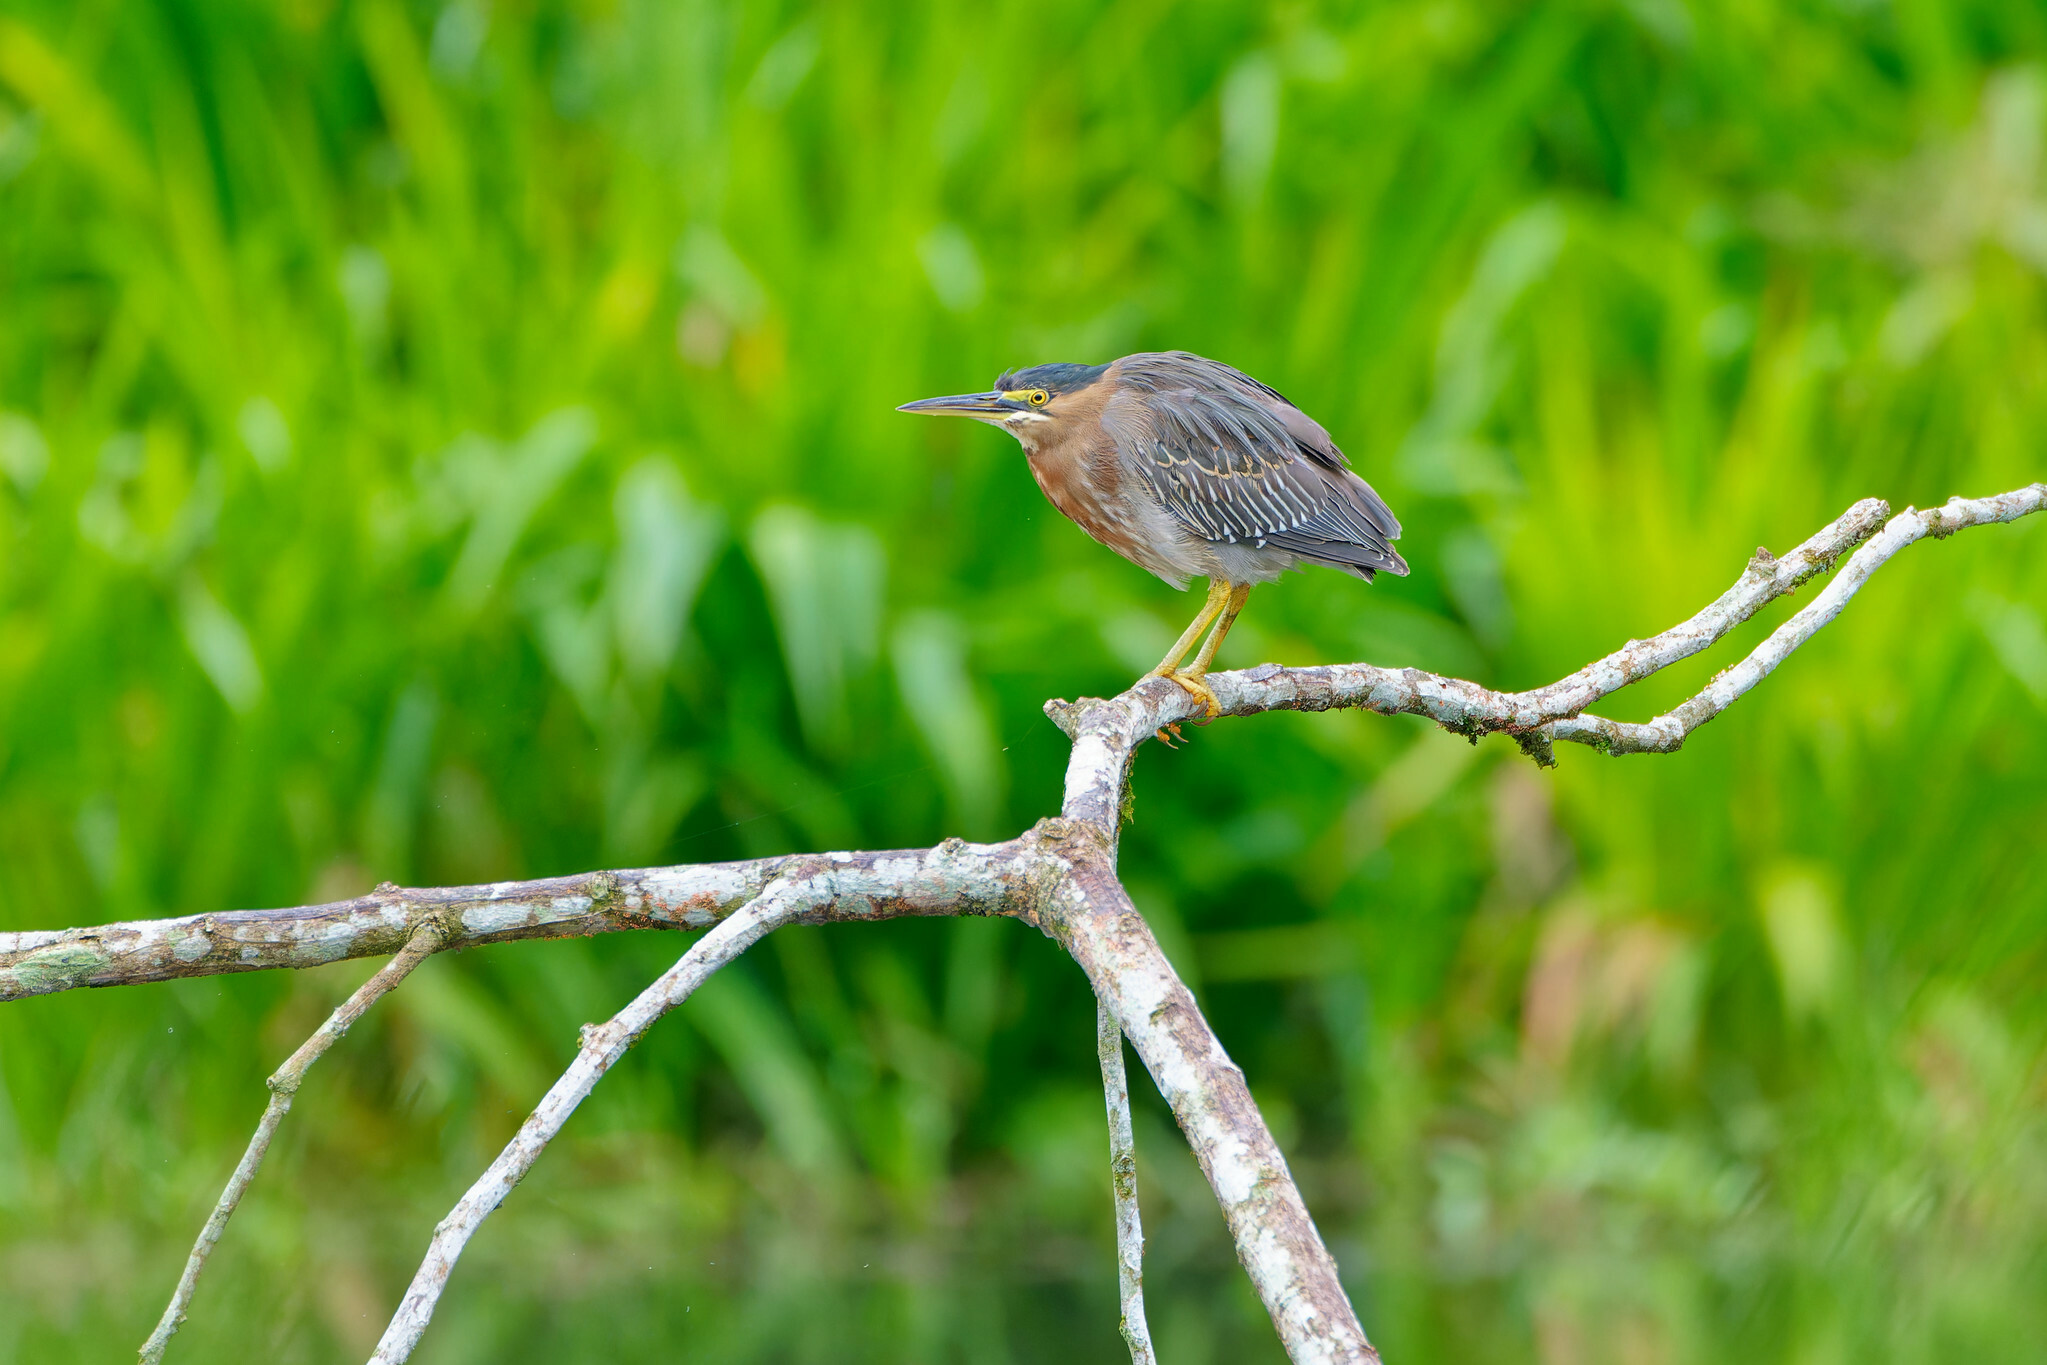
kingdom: Animalia
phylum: Chordata
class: Aves
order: Pelecaniformes
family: Ardeidae
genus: Butorides
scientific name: Butorides striata
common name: Striated heron
